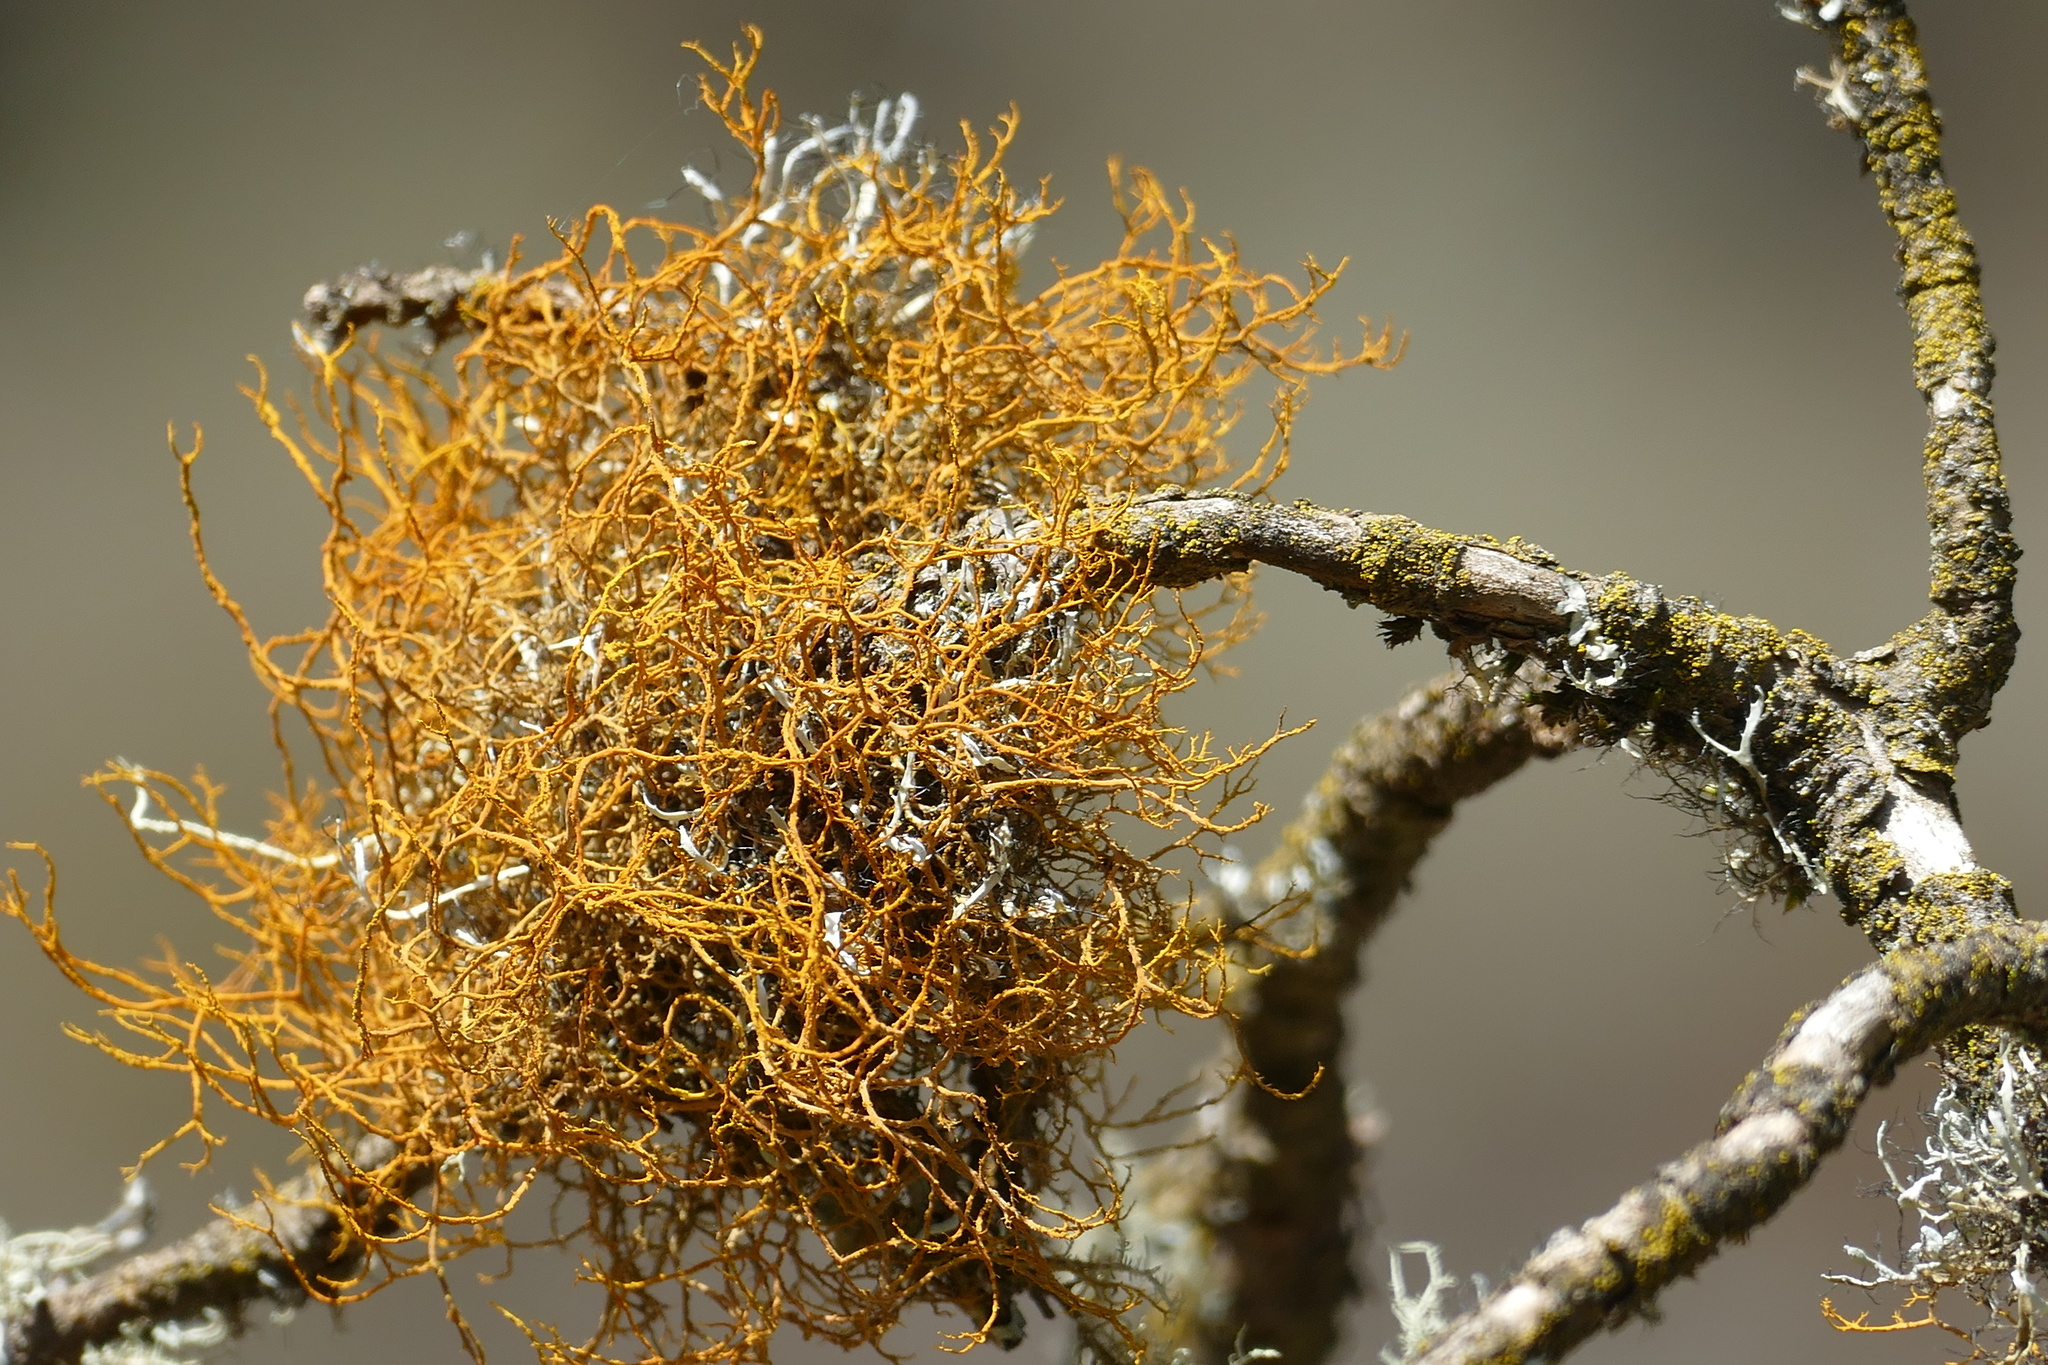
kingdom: Fungi
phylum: Ascomycota
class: Lecanoromycetes
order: Teloschistales
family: Teloschistaceae
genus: Teloschistes
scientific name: Teloschistes flavicans
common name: Golden hair-lichen
